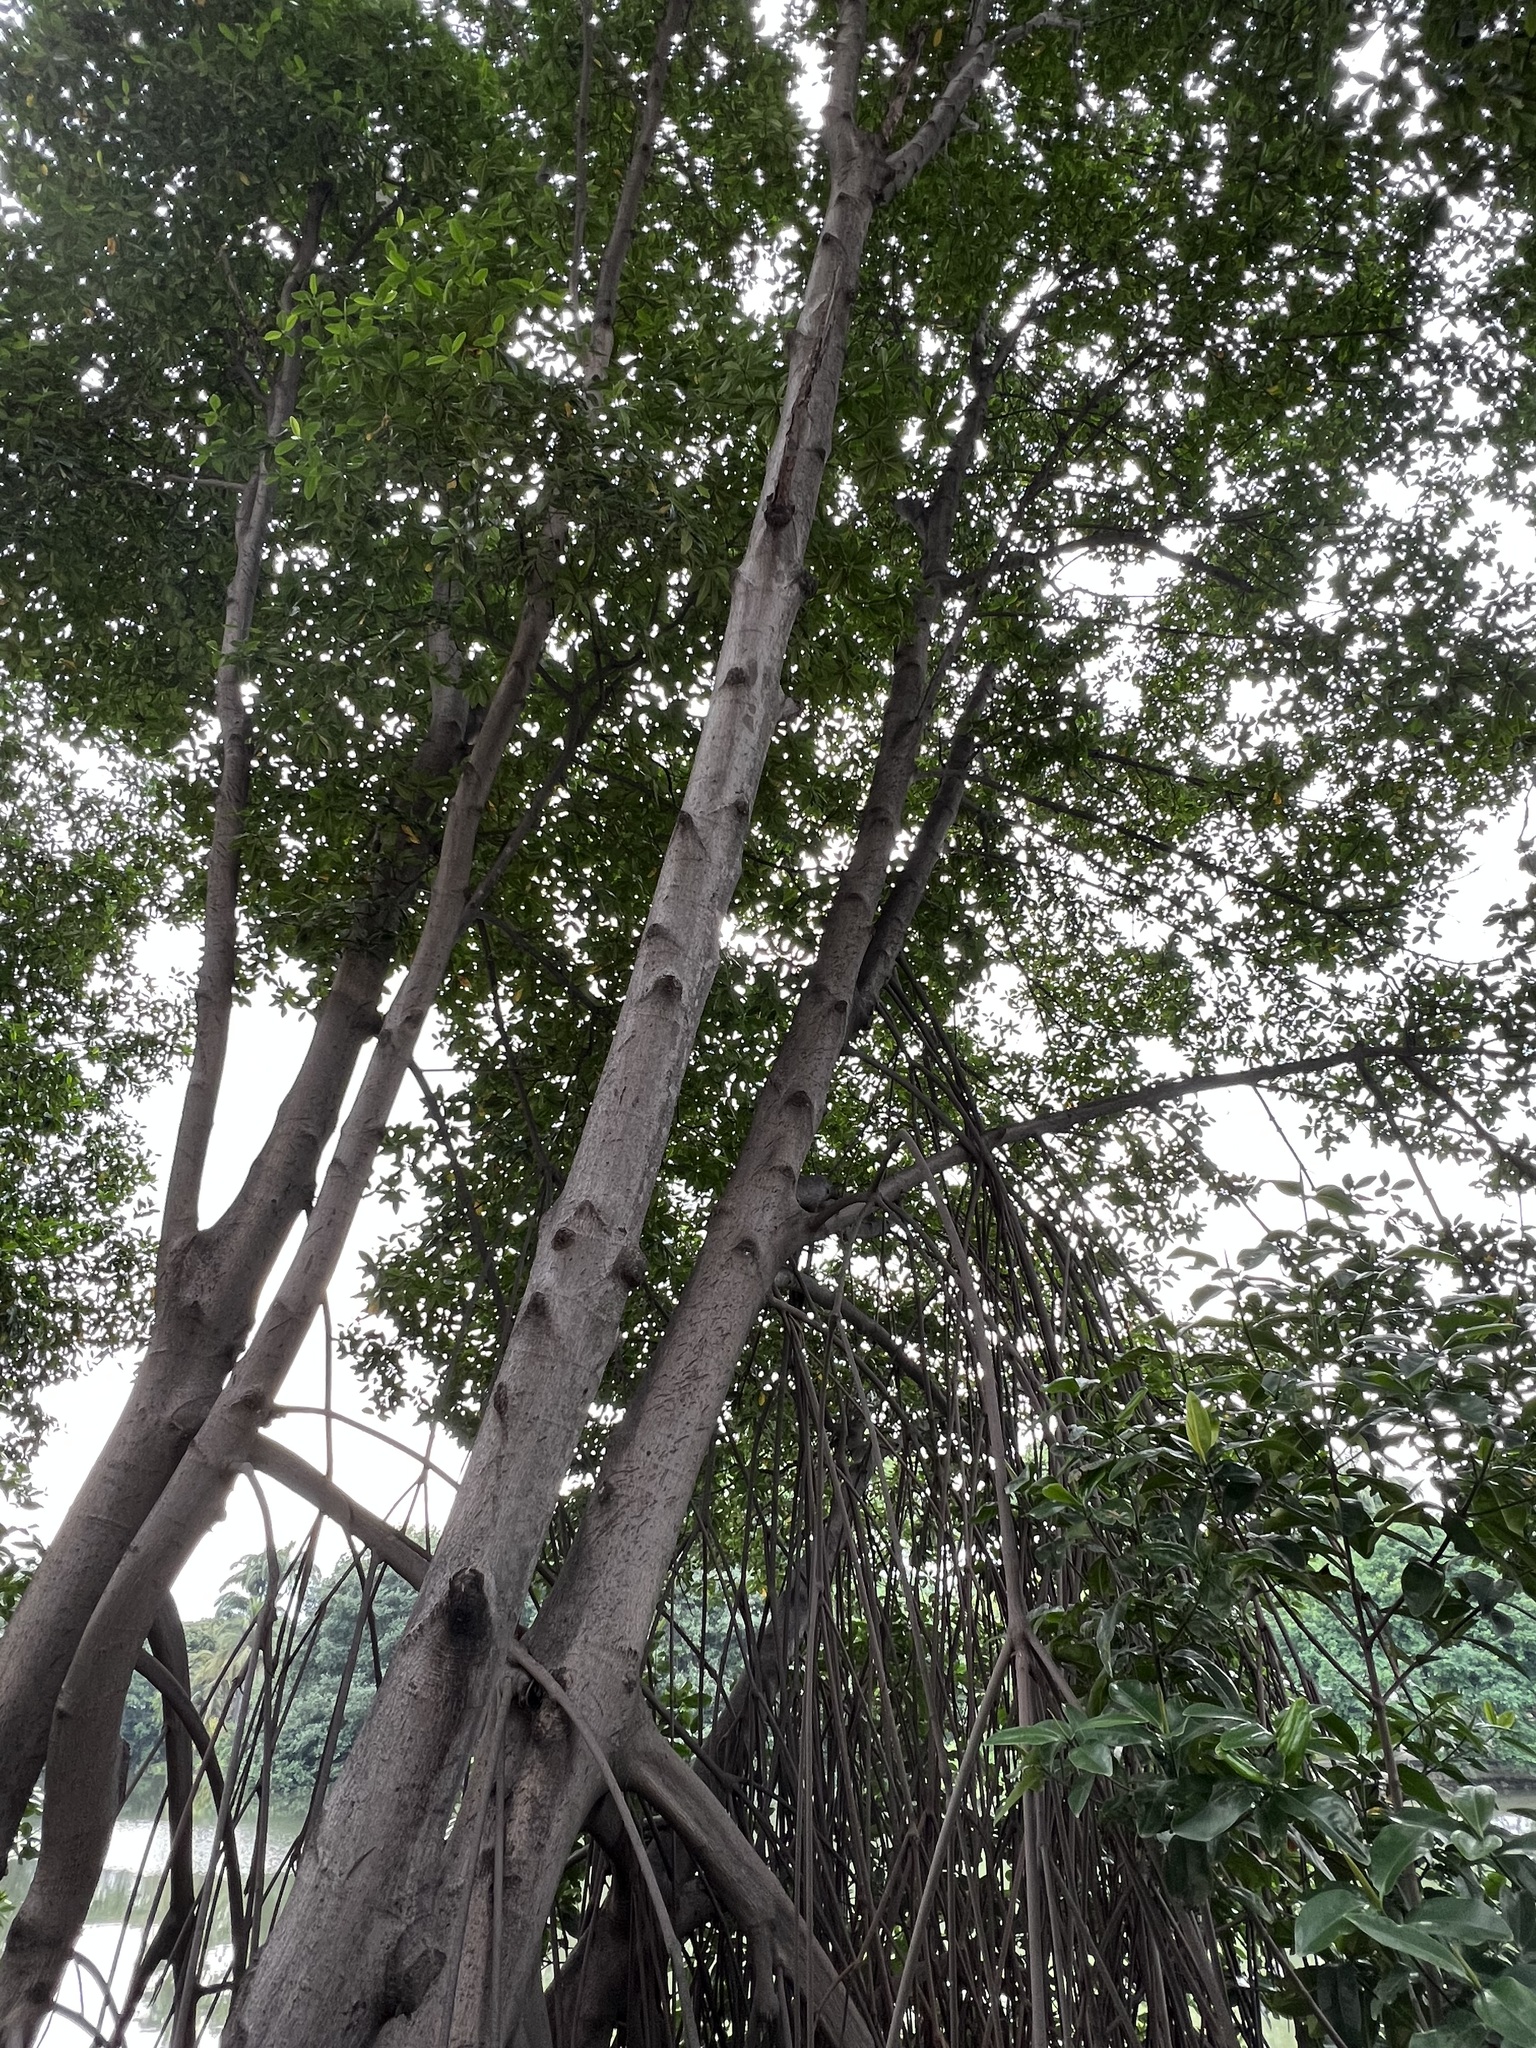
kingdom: Plantae
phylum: Tracheophyta
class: Magnoliopsida
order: Malpighiales
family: Rhizophoraceae
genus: Rhizophora
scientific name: Rhizophora mangle
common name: Red mangrove
